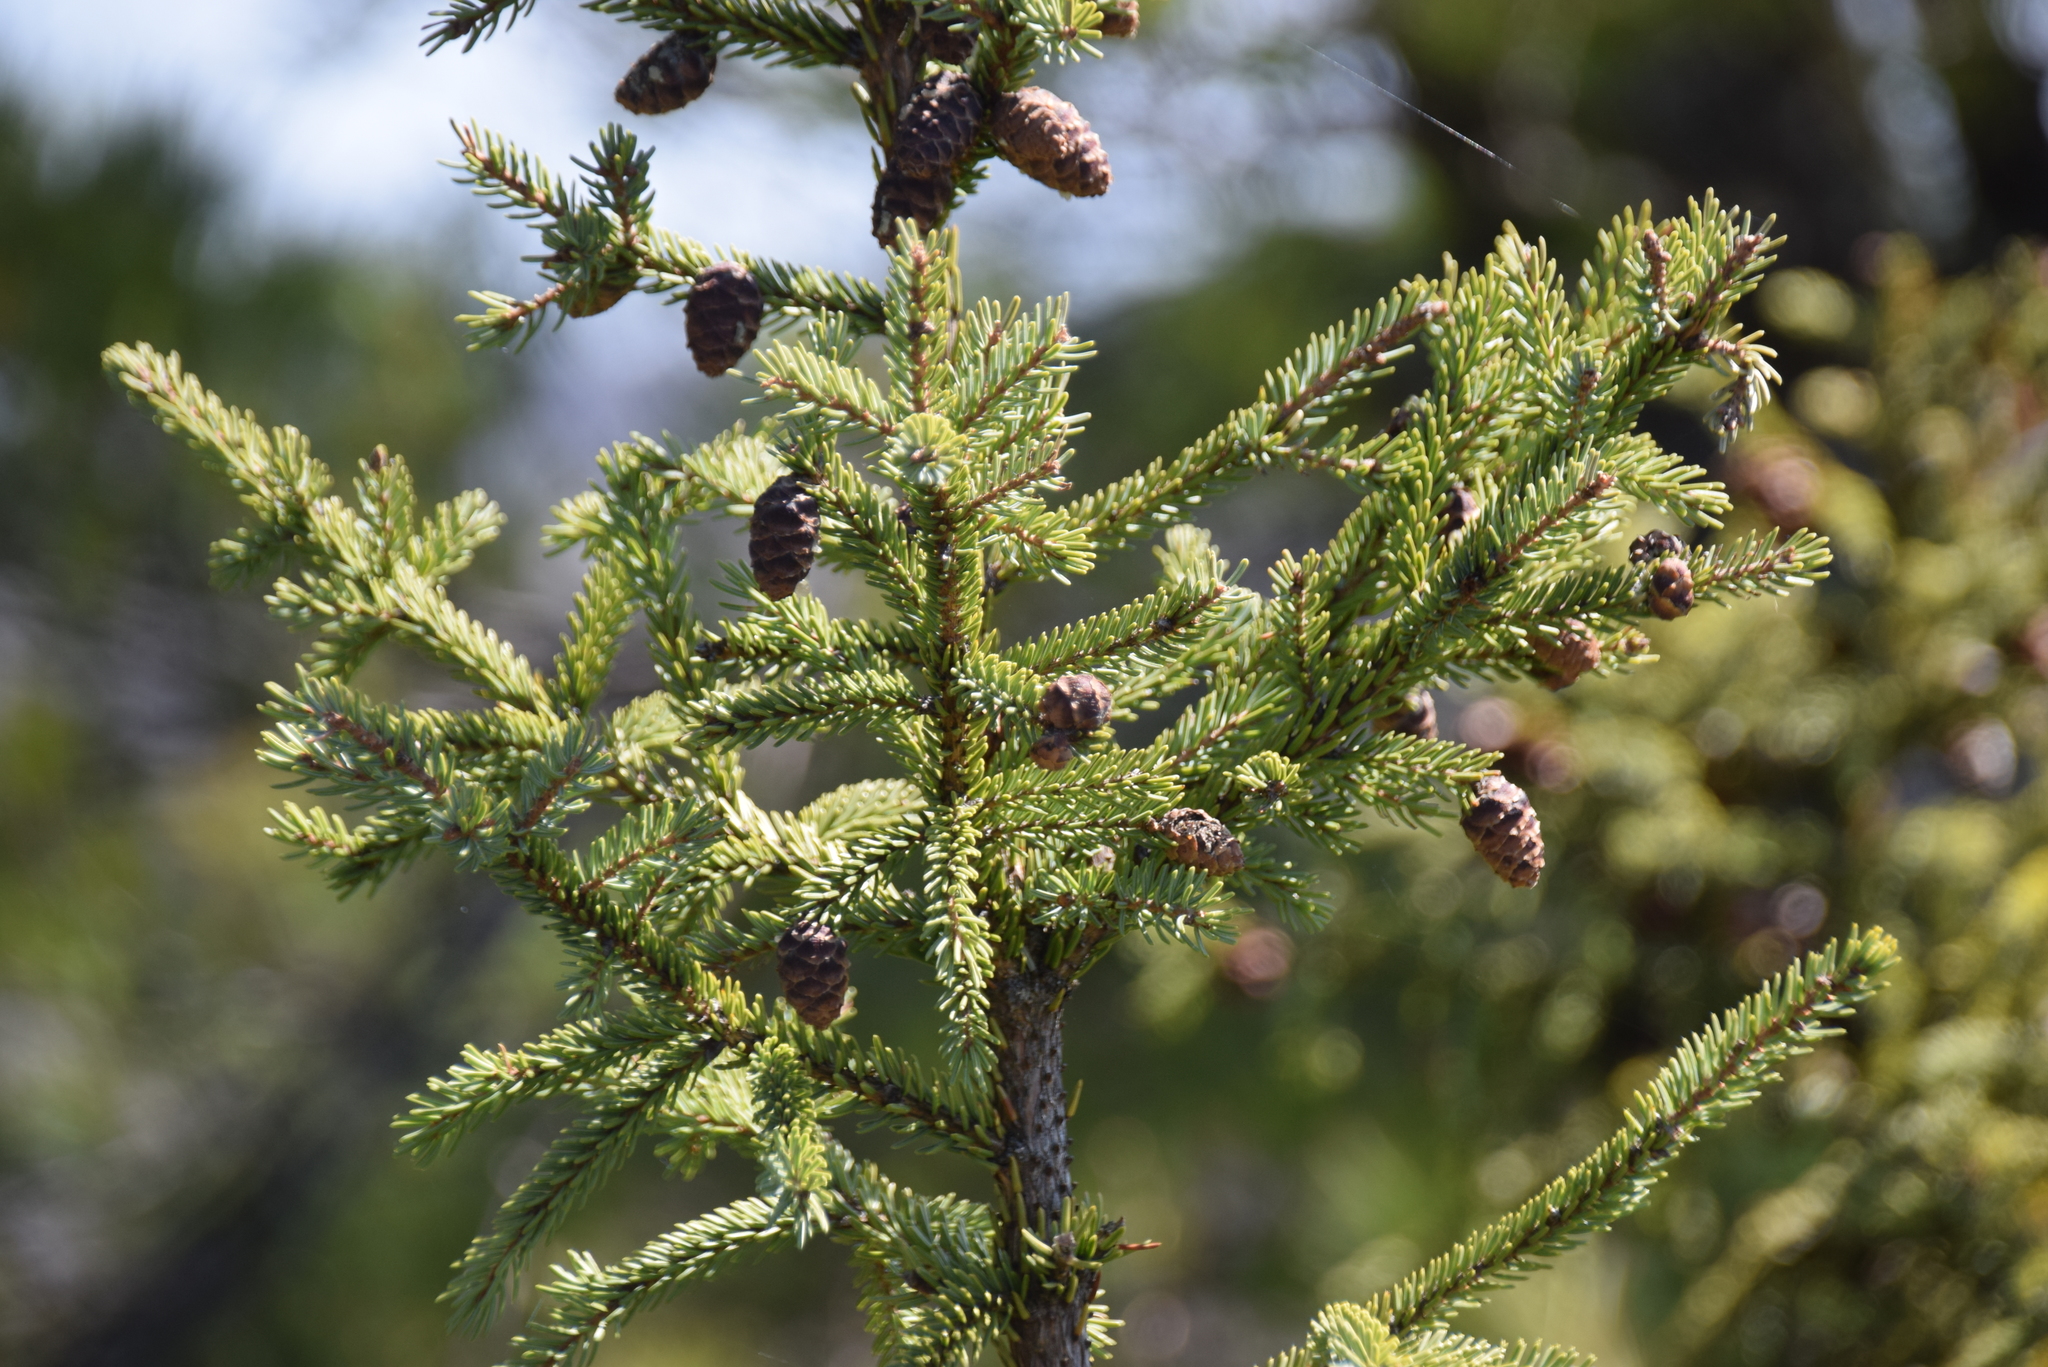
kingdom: Plantae
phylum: Tracheophyta
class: Pinopsida
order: Pinales
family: Pinaceae
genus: Picea
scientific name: Picea mariana
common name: Black spruce
